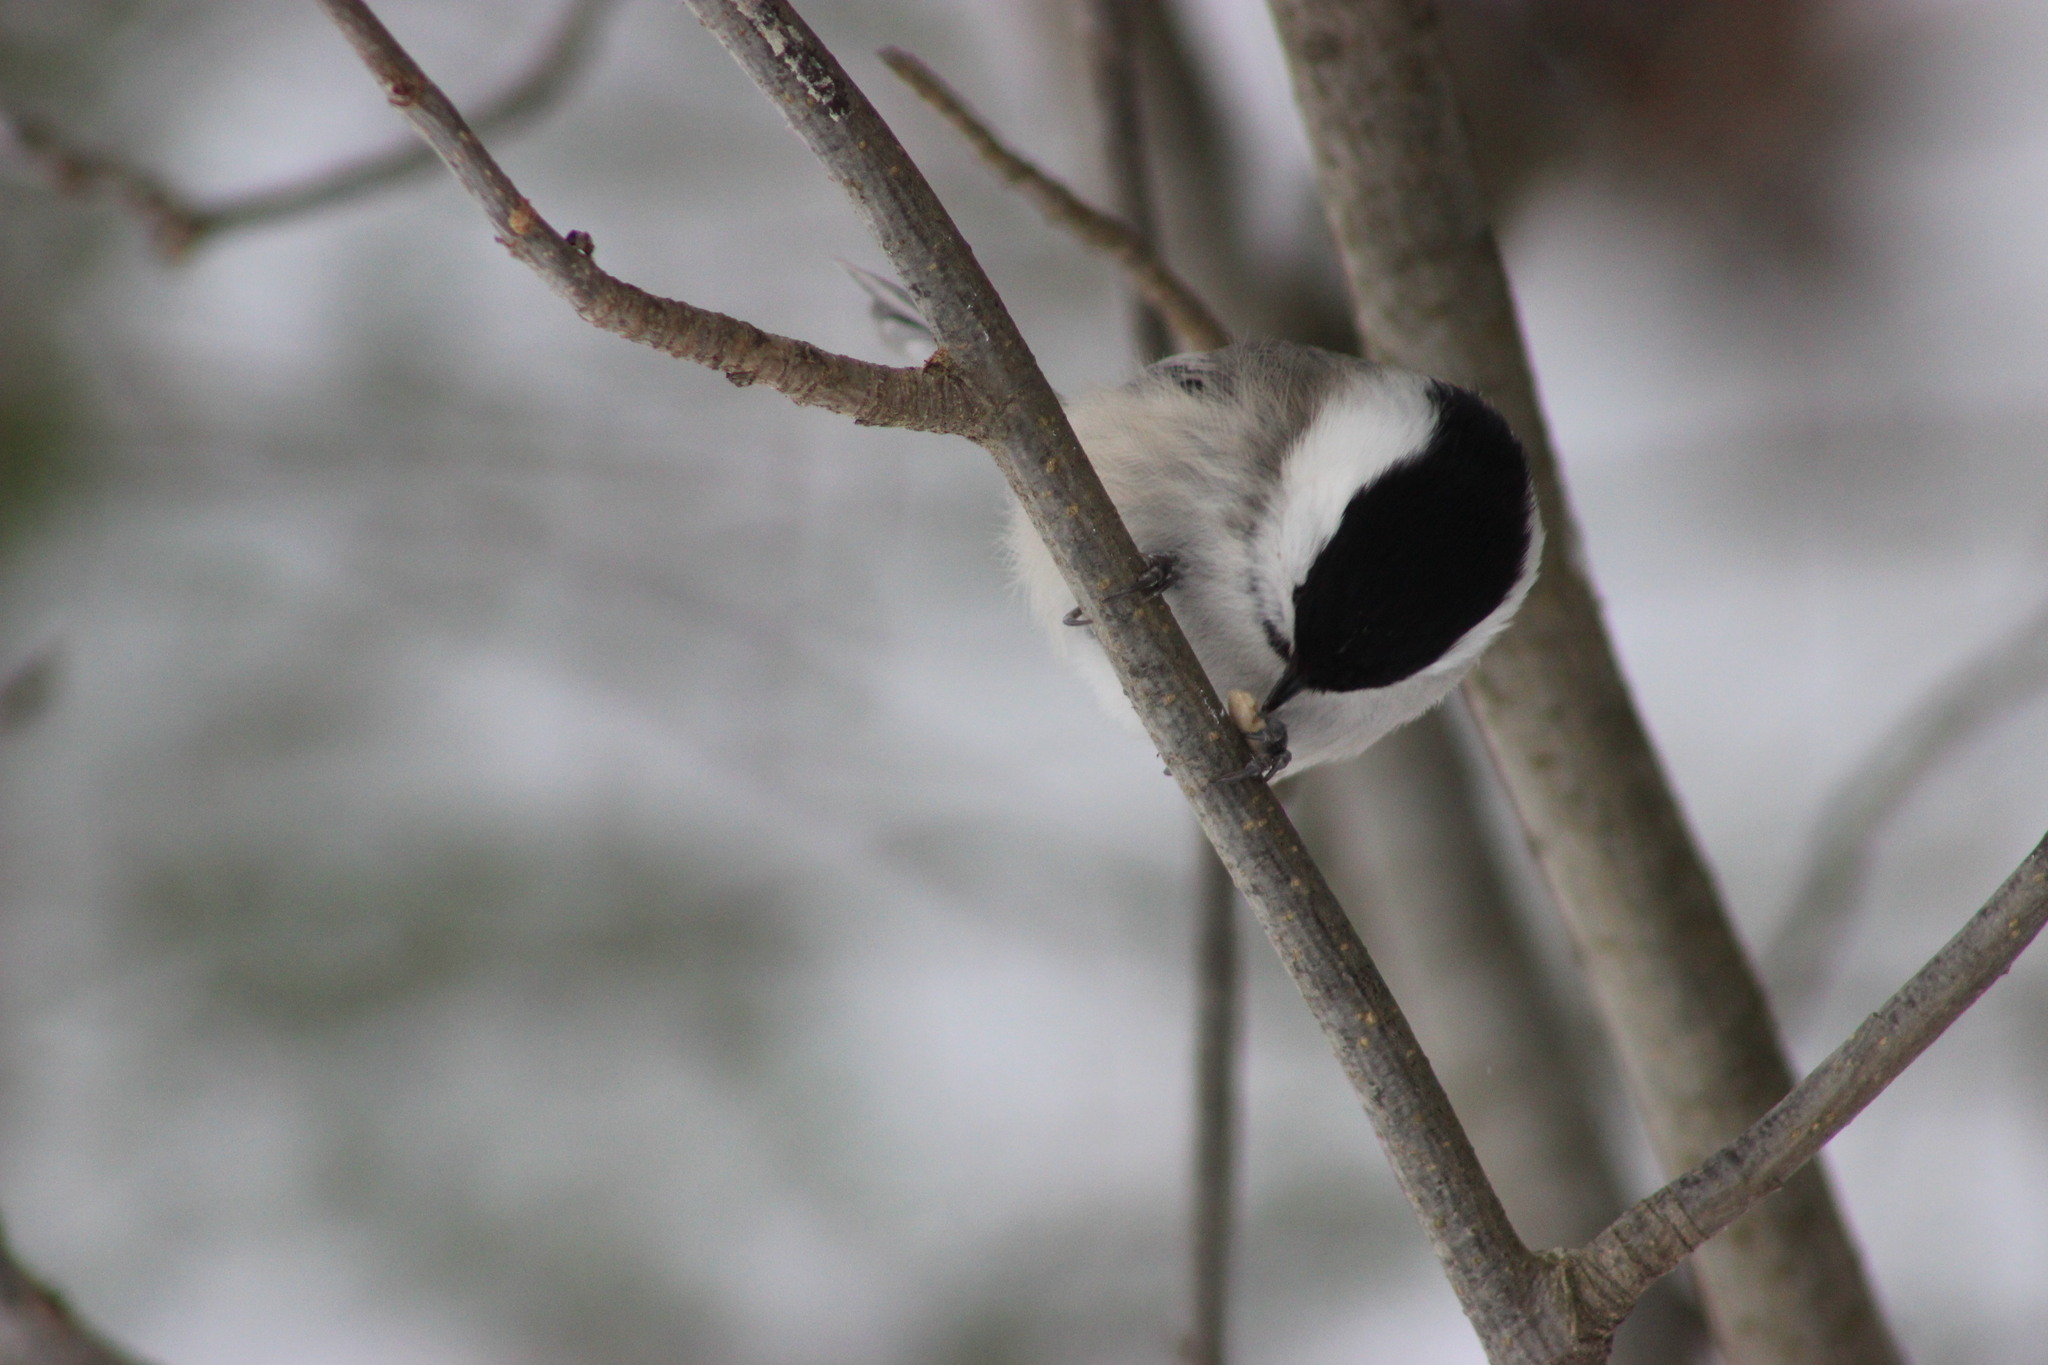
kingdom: Animalia
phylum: Chordata
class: Aves
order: Passeriformes
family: Paridae
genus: Poecile
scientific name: Poecile montanus
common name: Willow tit
